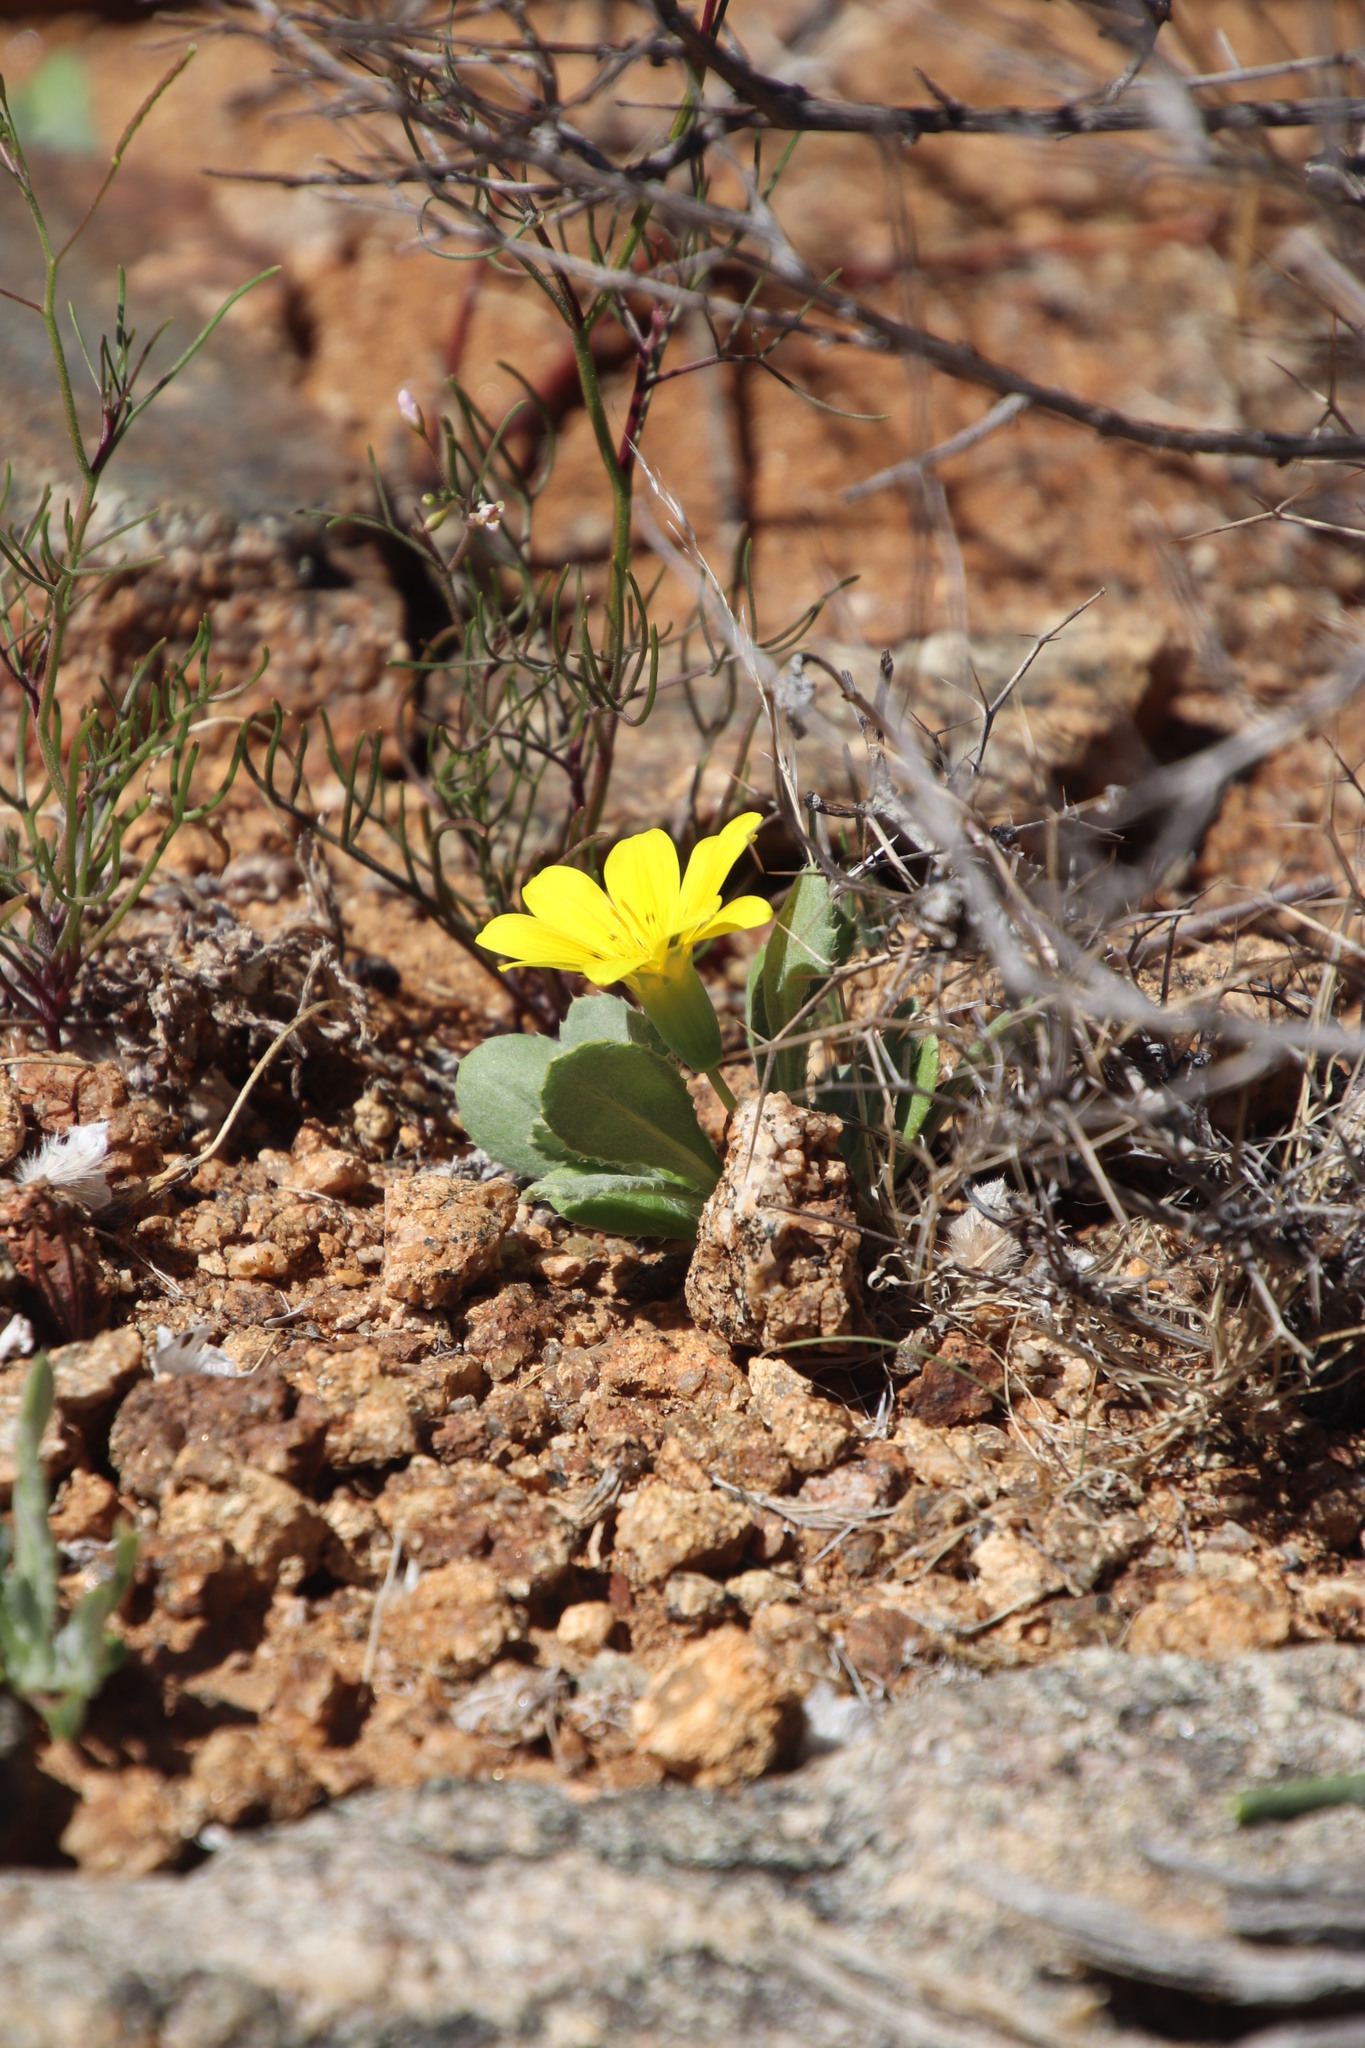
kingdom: Plantae
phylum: Tracheophyta
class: Magnoliopsida
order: Asterales
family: Asteraceae
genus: Gazania
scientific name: Gazania lichtensteinii
